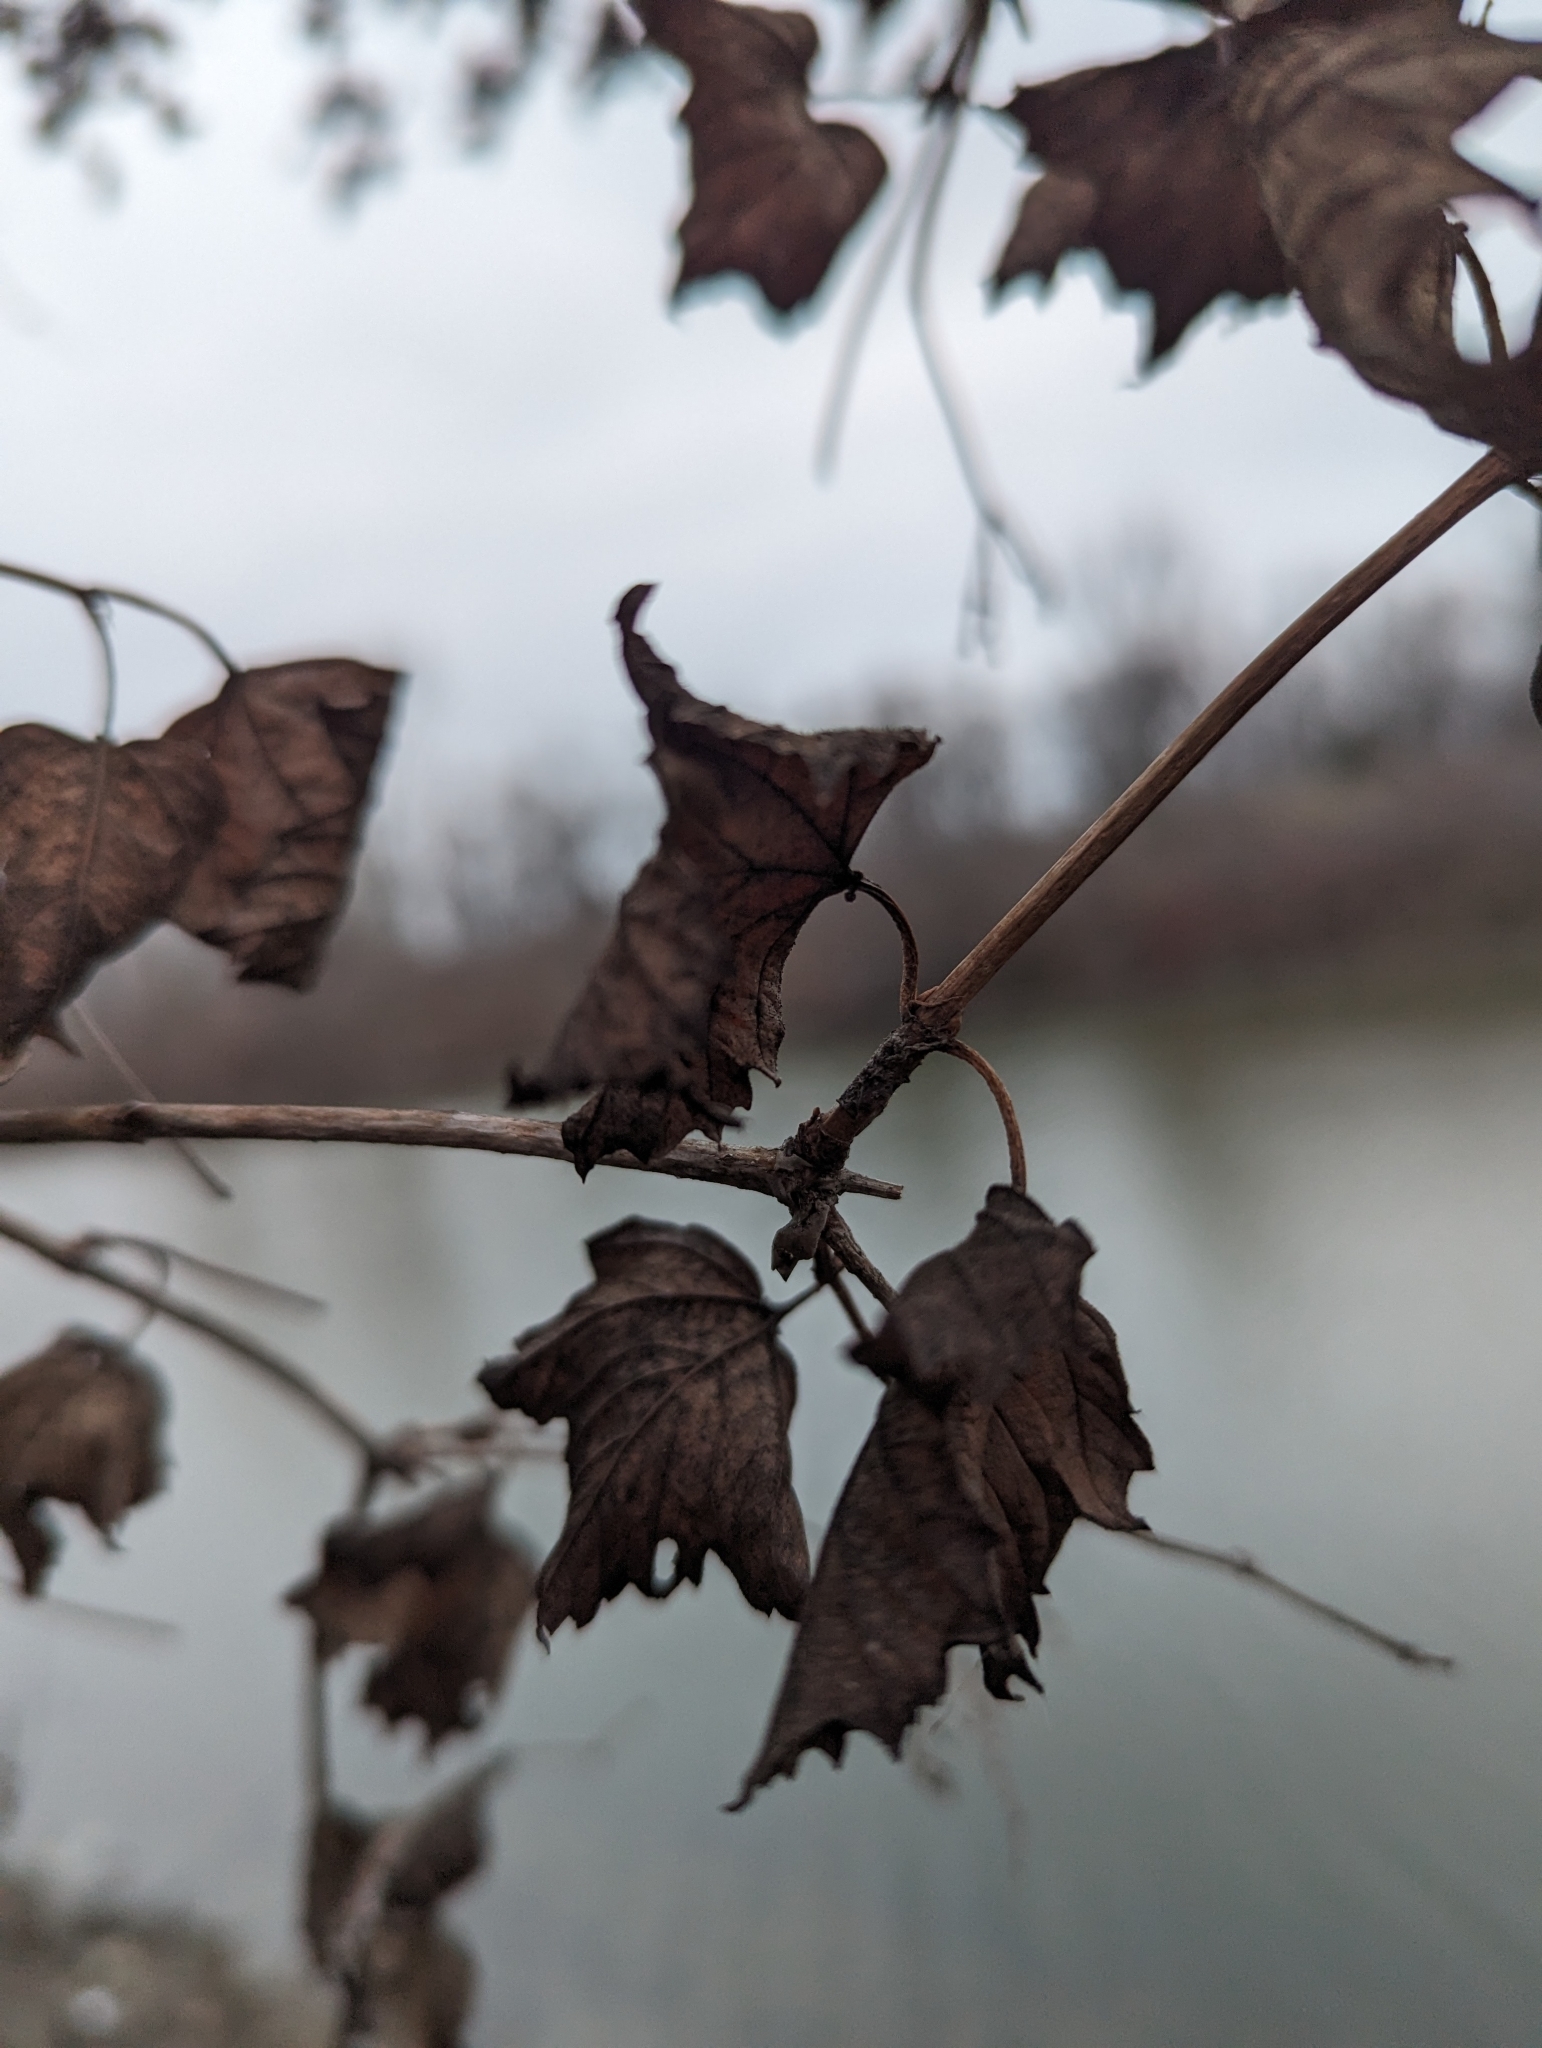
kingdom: Plantae
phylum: Tracheophyta
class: Magnoliopsida
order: Dipsacales
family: Viburnaceae
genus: Viburnum
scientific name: Viburnum opulus
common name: Guelder-rose
